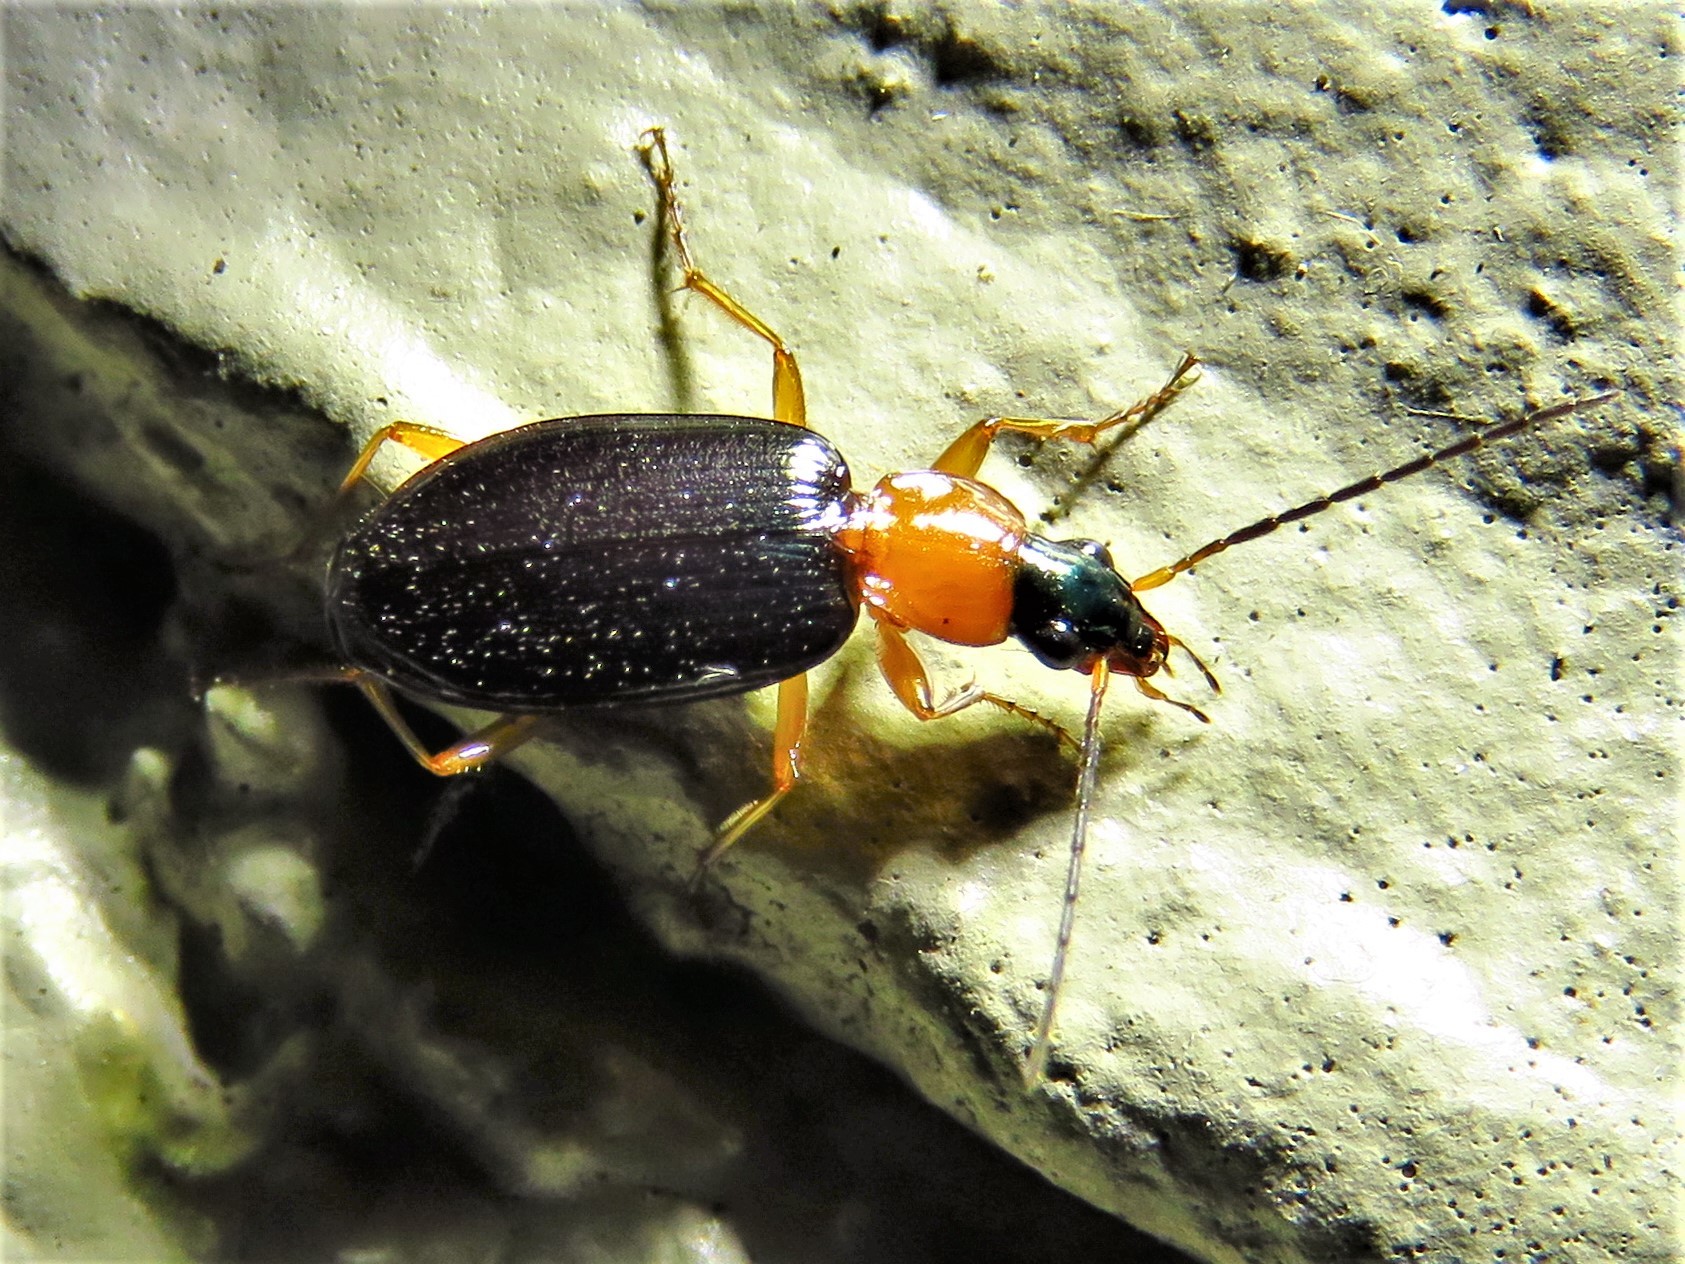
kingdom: Animalia
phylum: Arthropoda
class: Insecta
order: Coleoptera
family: Carabidae
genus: Agonum
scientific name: Agonum decorum
